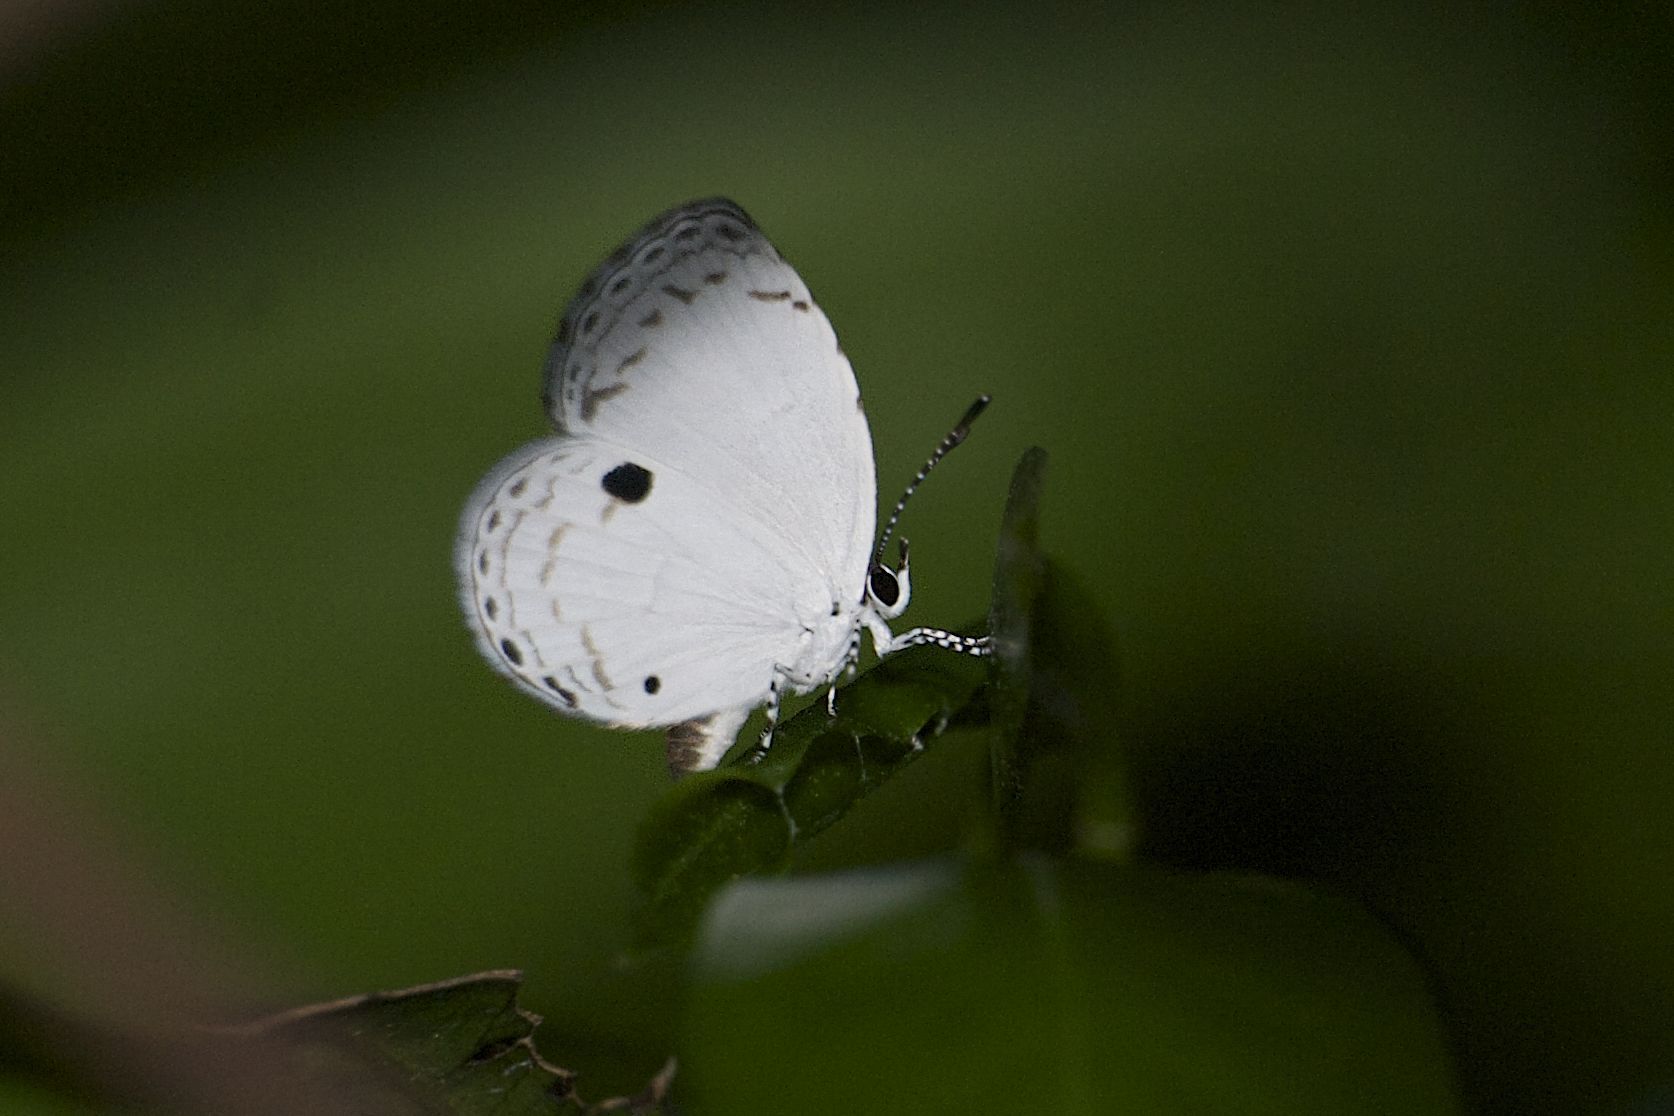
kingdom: Animalia
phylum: Arthropoda
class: Insecta
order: Lepidoptera
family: Lycaenidae
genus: Neopithecops
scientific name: Neopithecops zalmora
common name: Quaker
